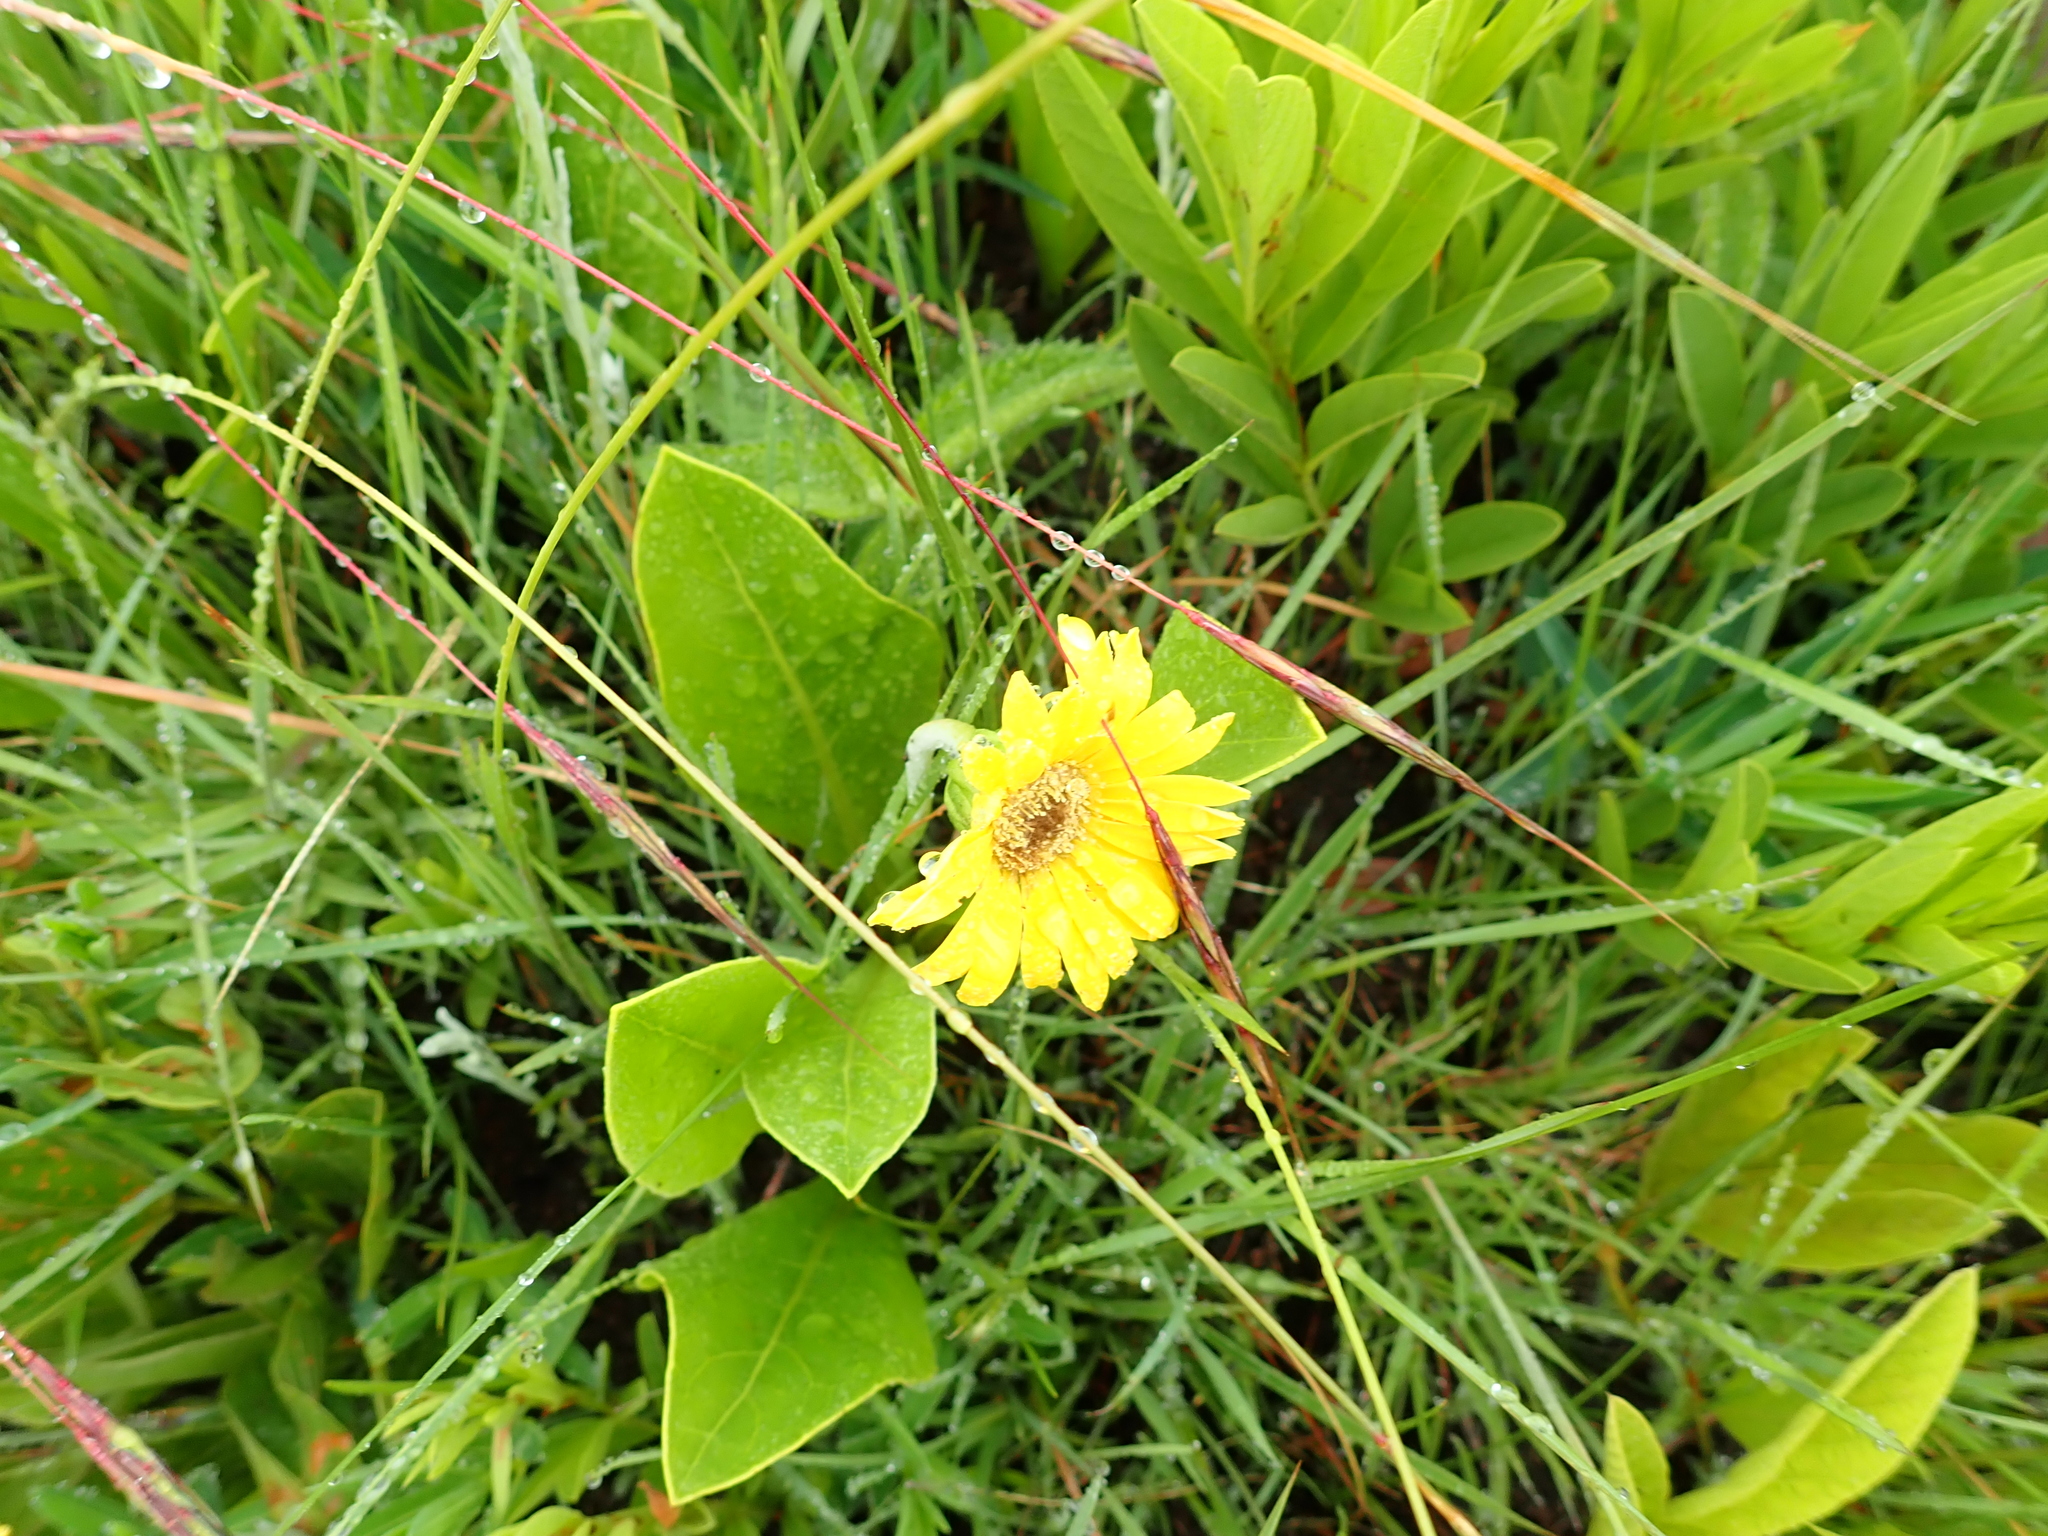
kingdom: Plantae
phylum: Tracheophyta
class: Magnoliopsida
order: Asterales
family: Asteraceae
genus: Gerbera
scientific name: Gerbera aurantiaca
